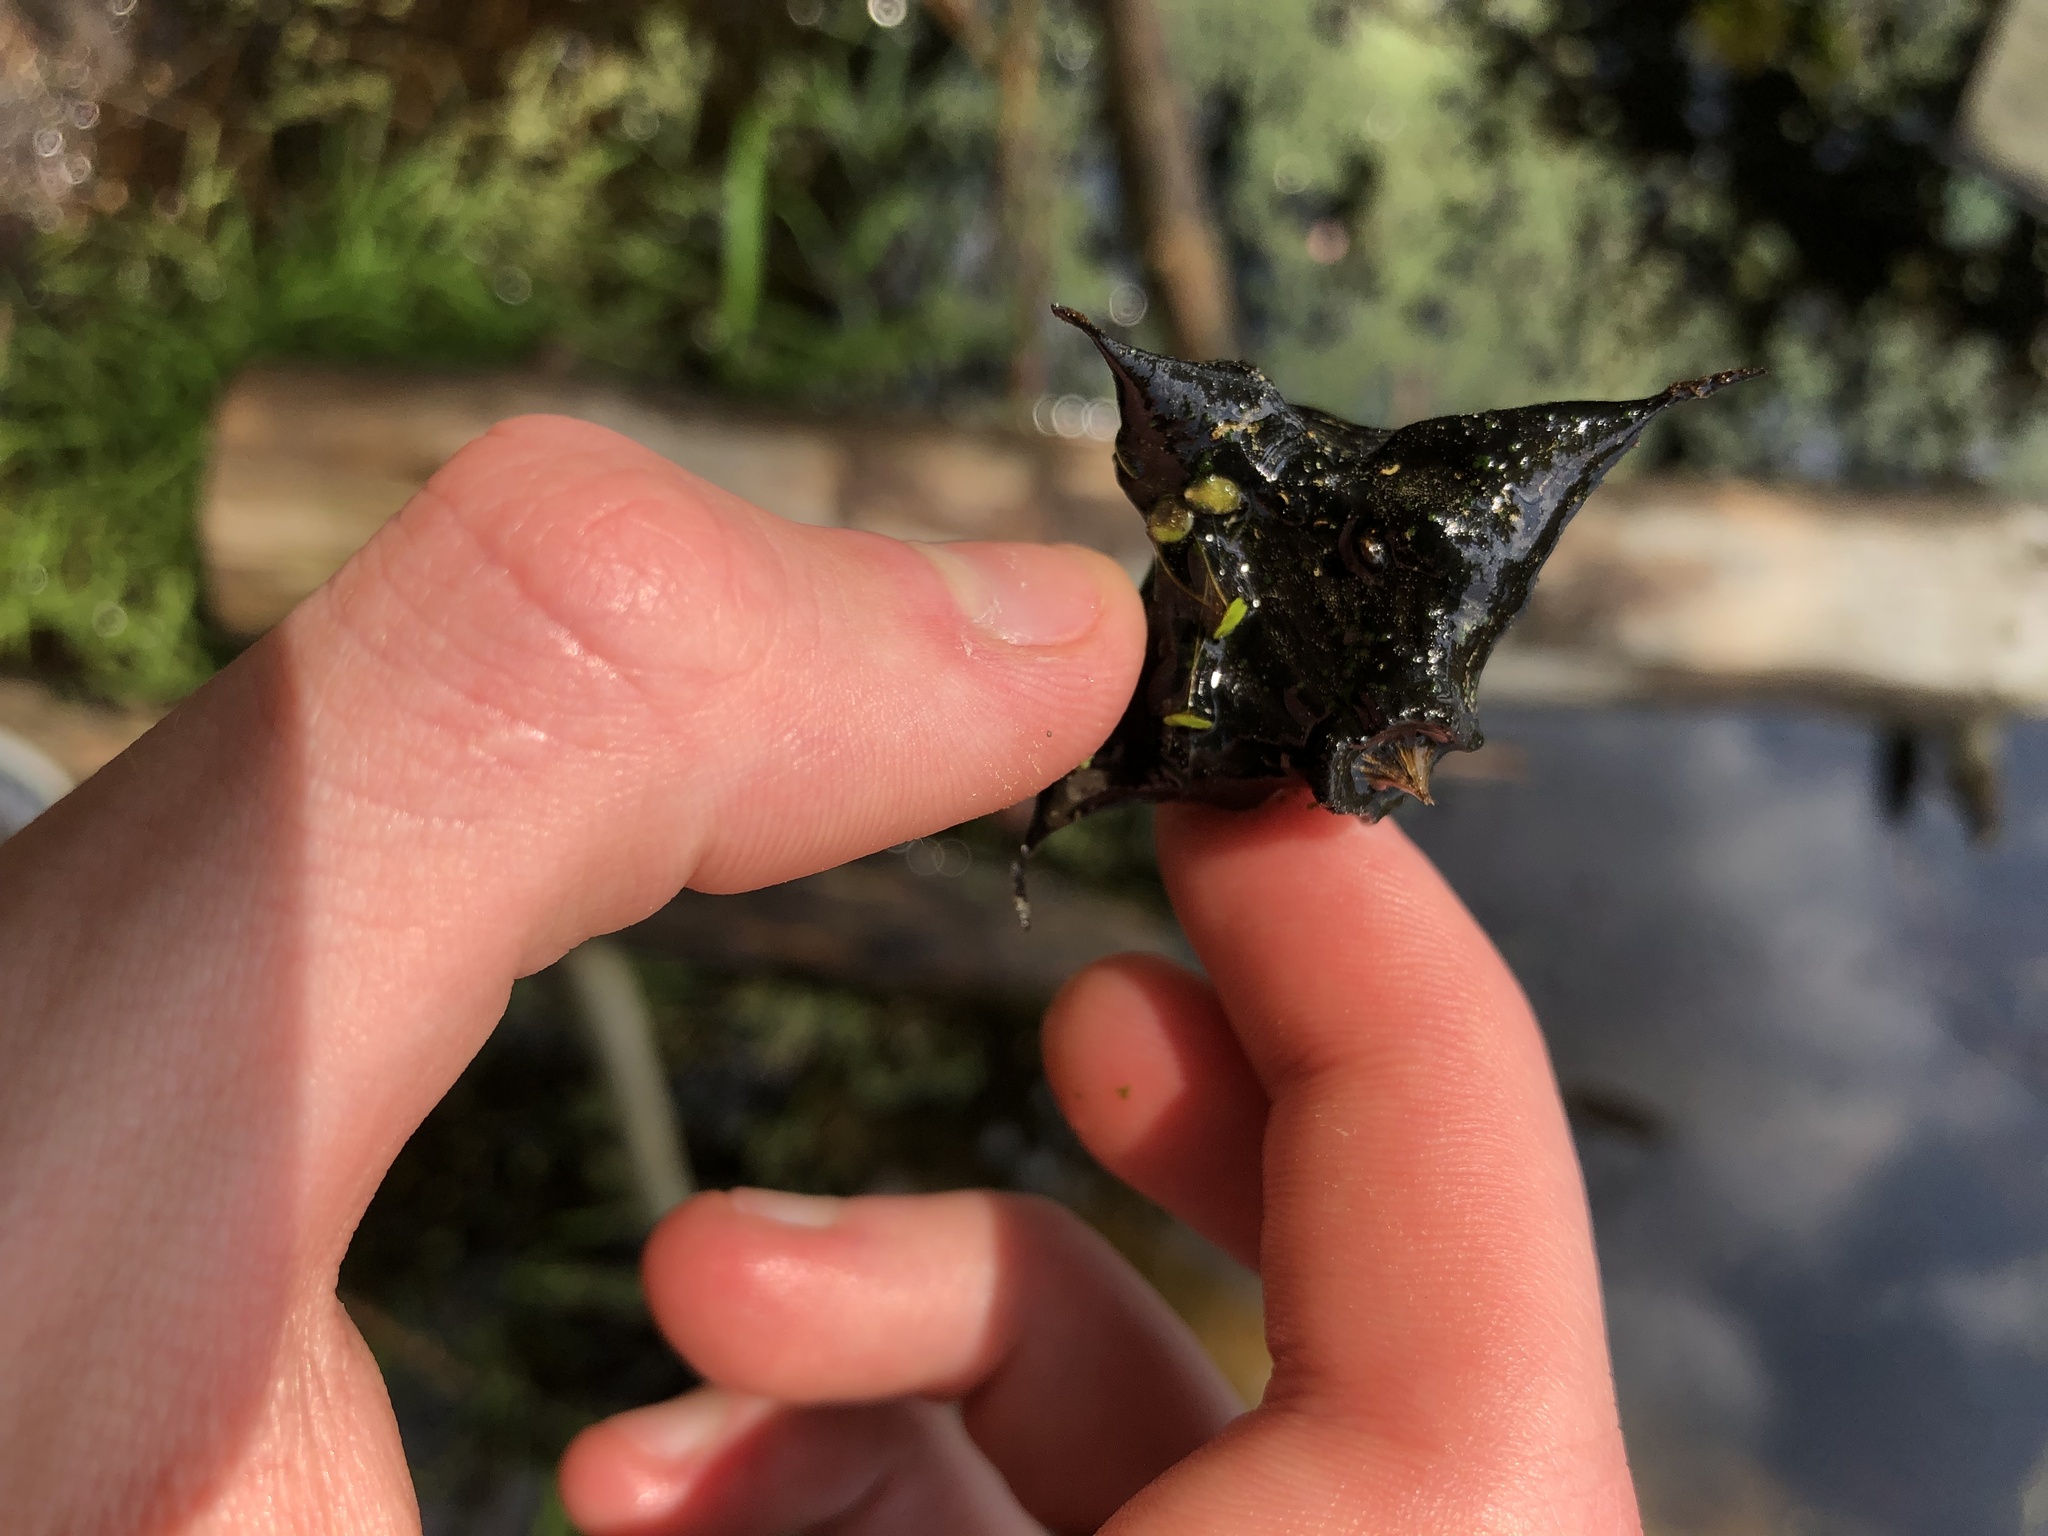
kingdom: Plantae
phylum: Tracheophyta
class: Magnoliopsida
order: Myrtales
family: Lythraceae
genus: Trapa
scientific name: Trapa natans
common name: Water chestnut
